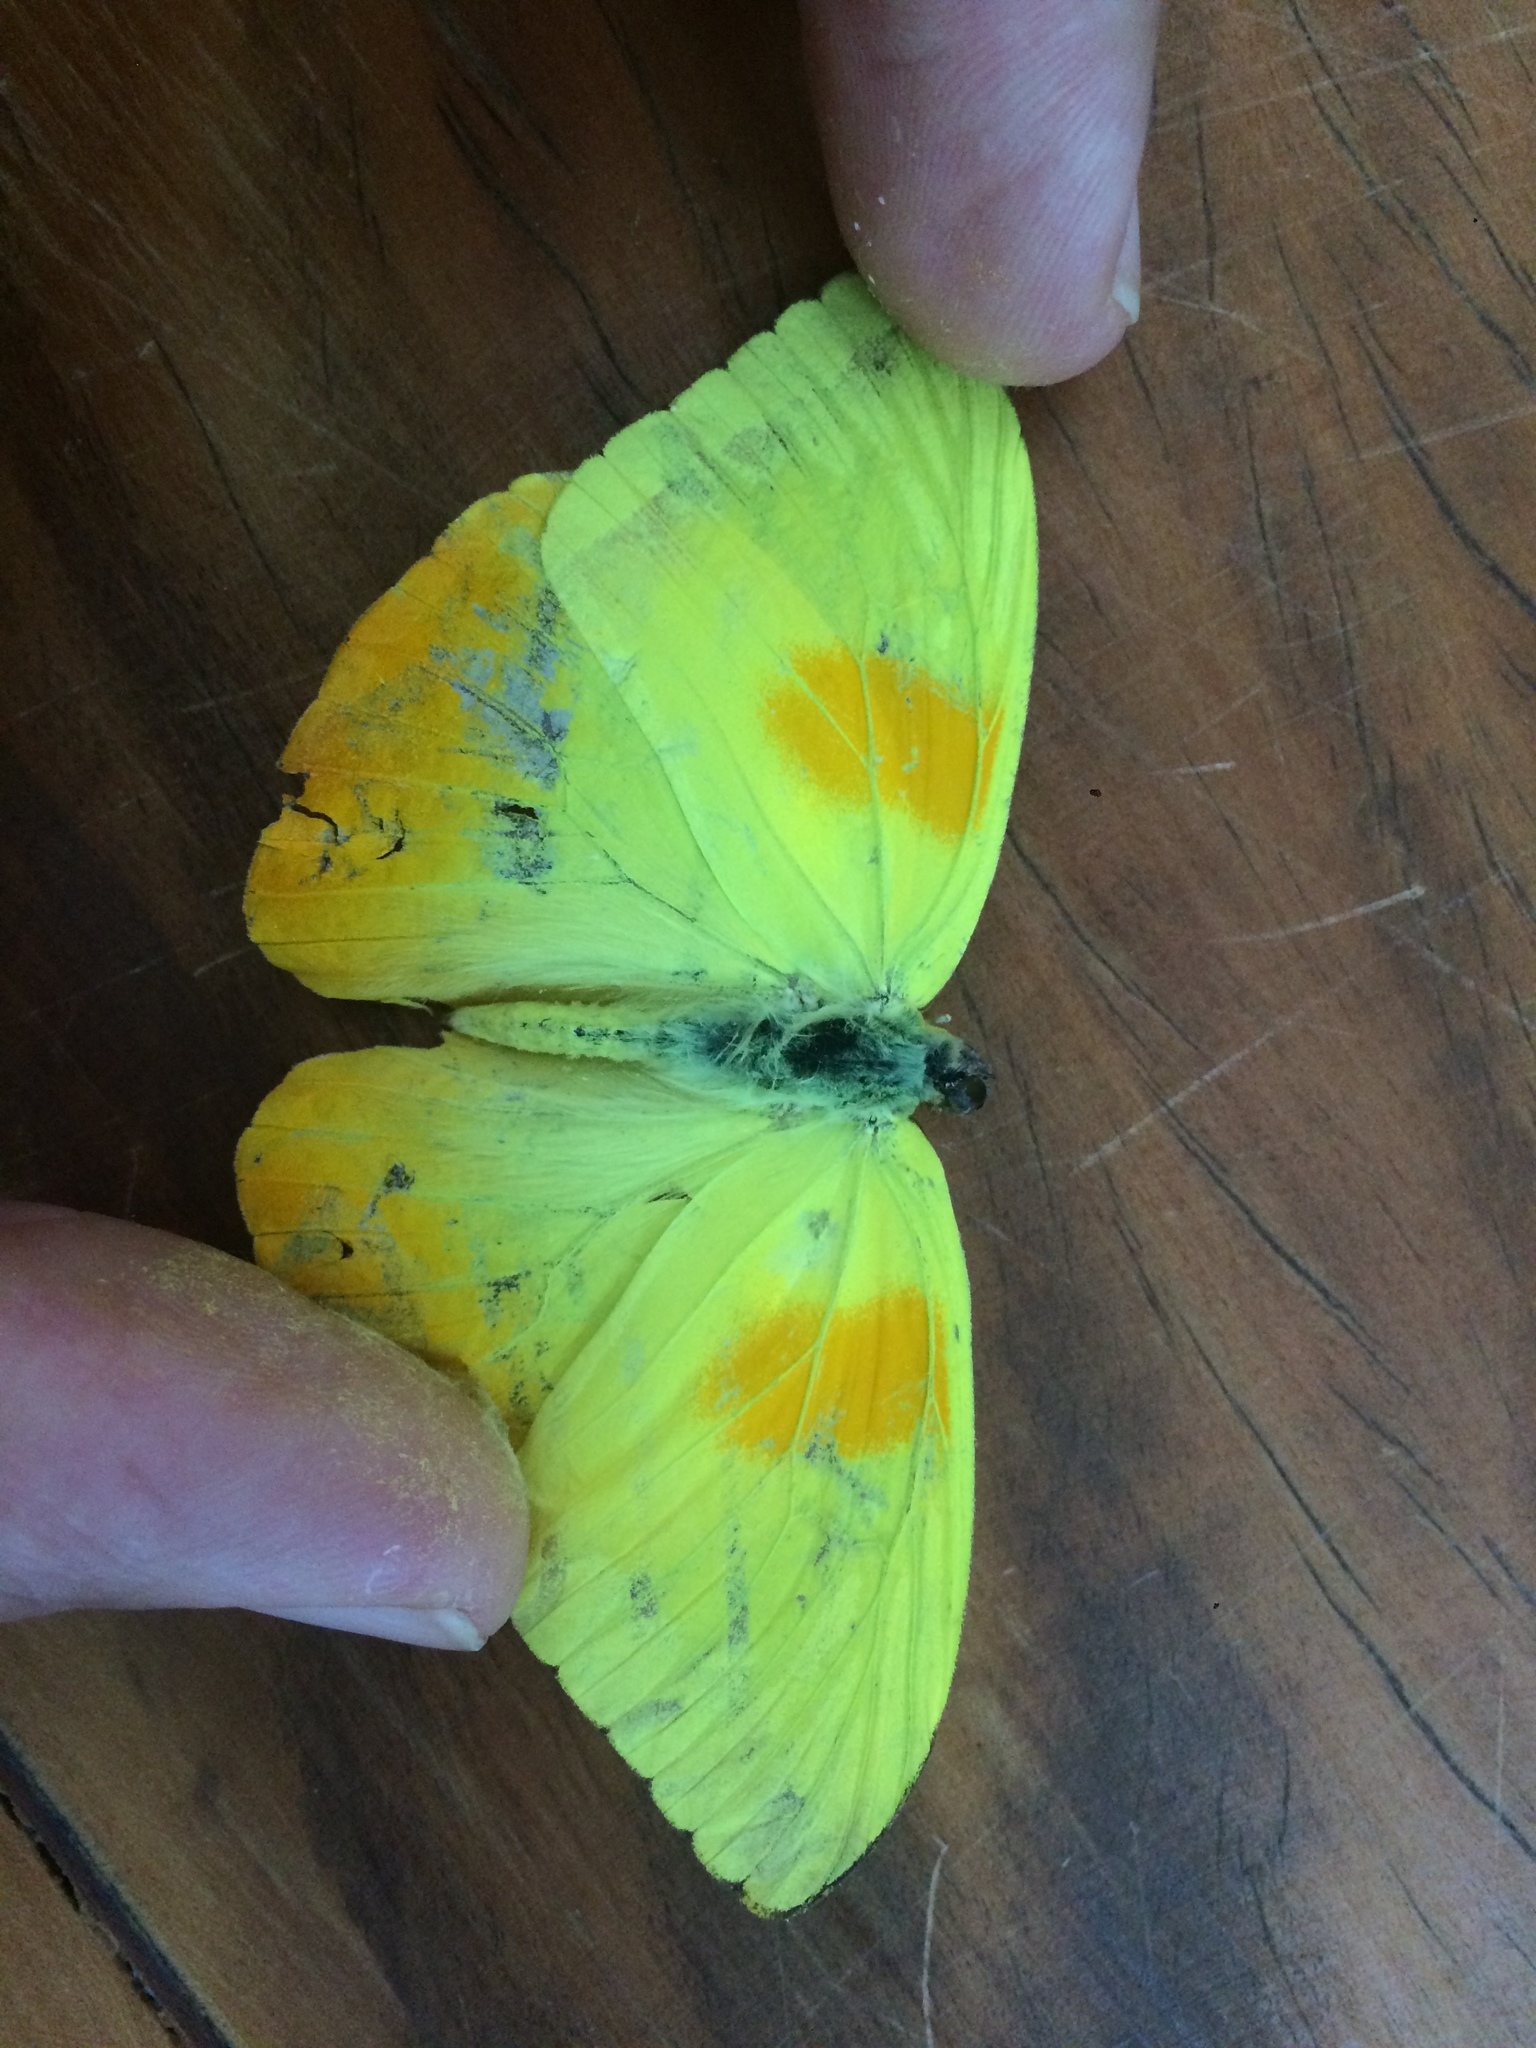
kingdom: Animalia
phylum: Arthropoda
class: Insecta
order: Lepidoptera
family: Pieridae
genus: Phoebis
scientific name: Phoebis philea
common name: Orange-barred giant sulphur
